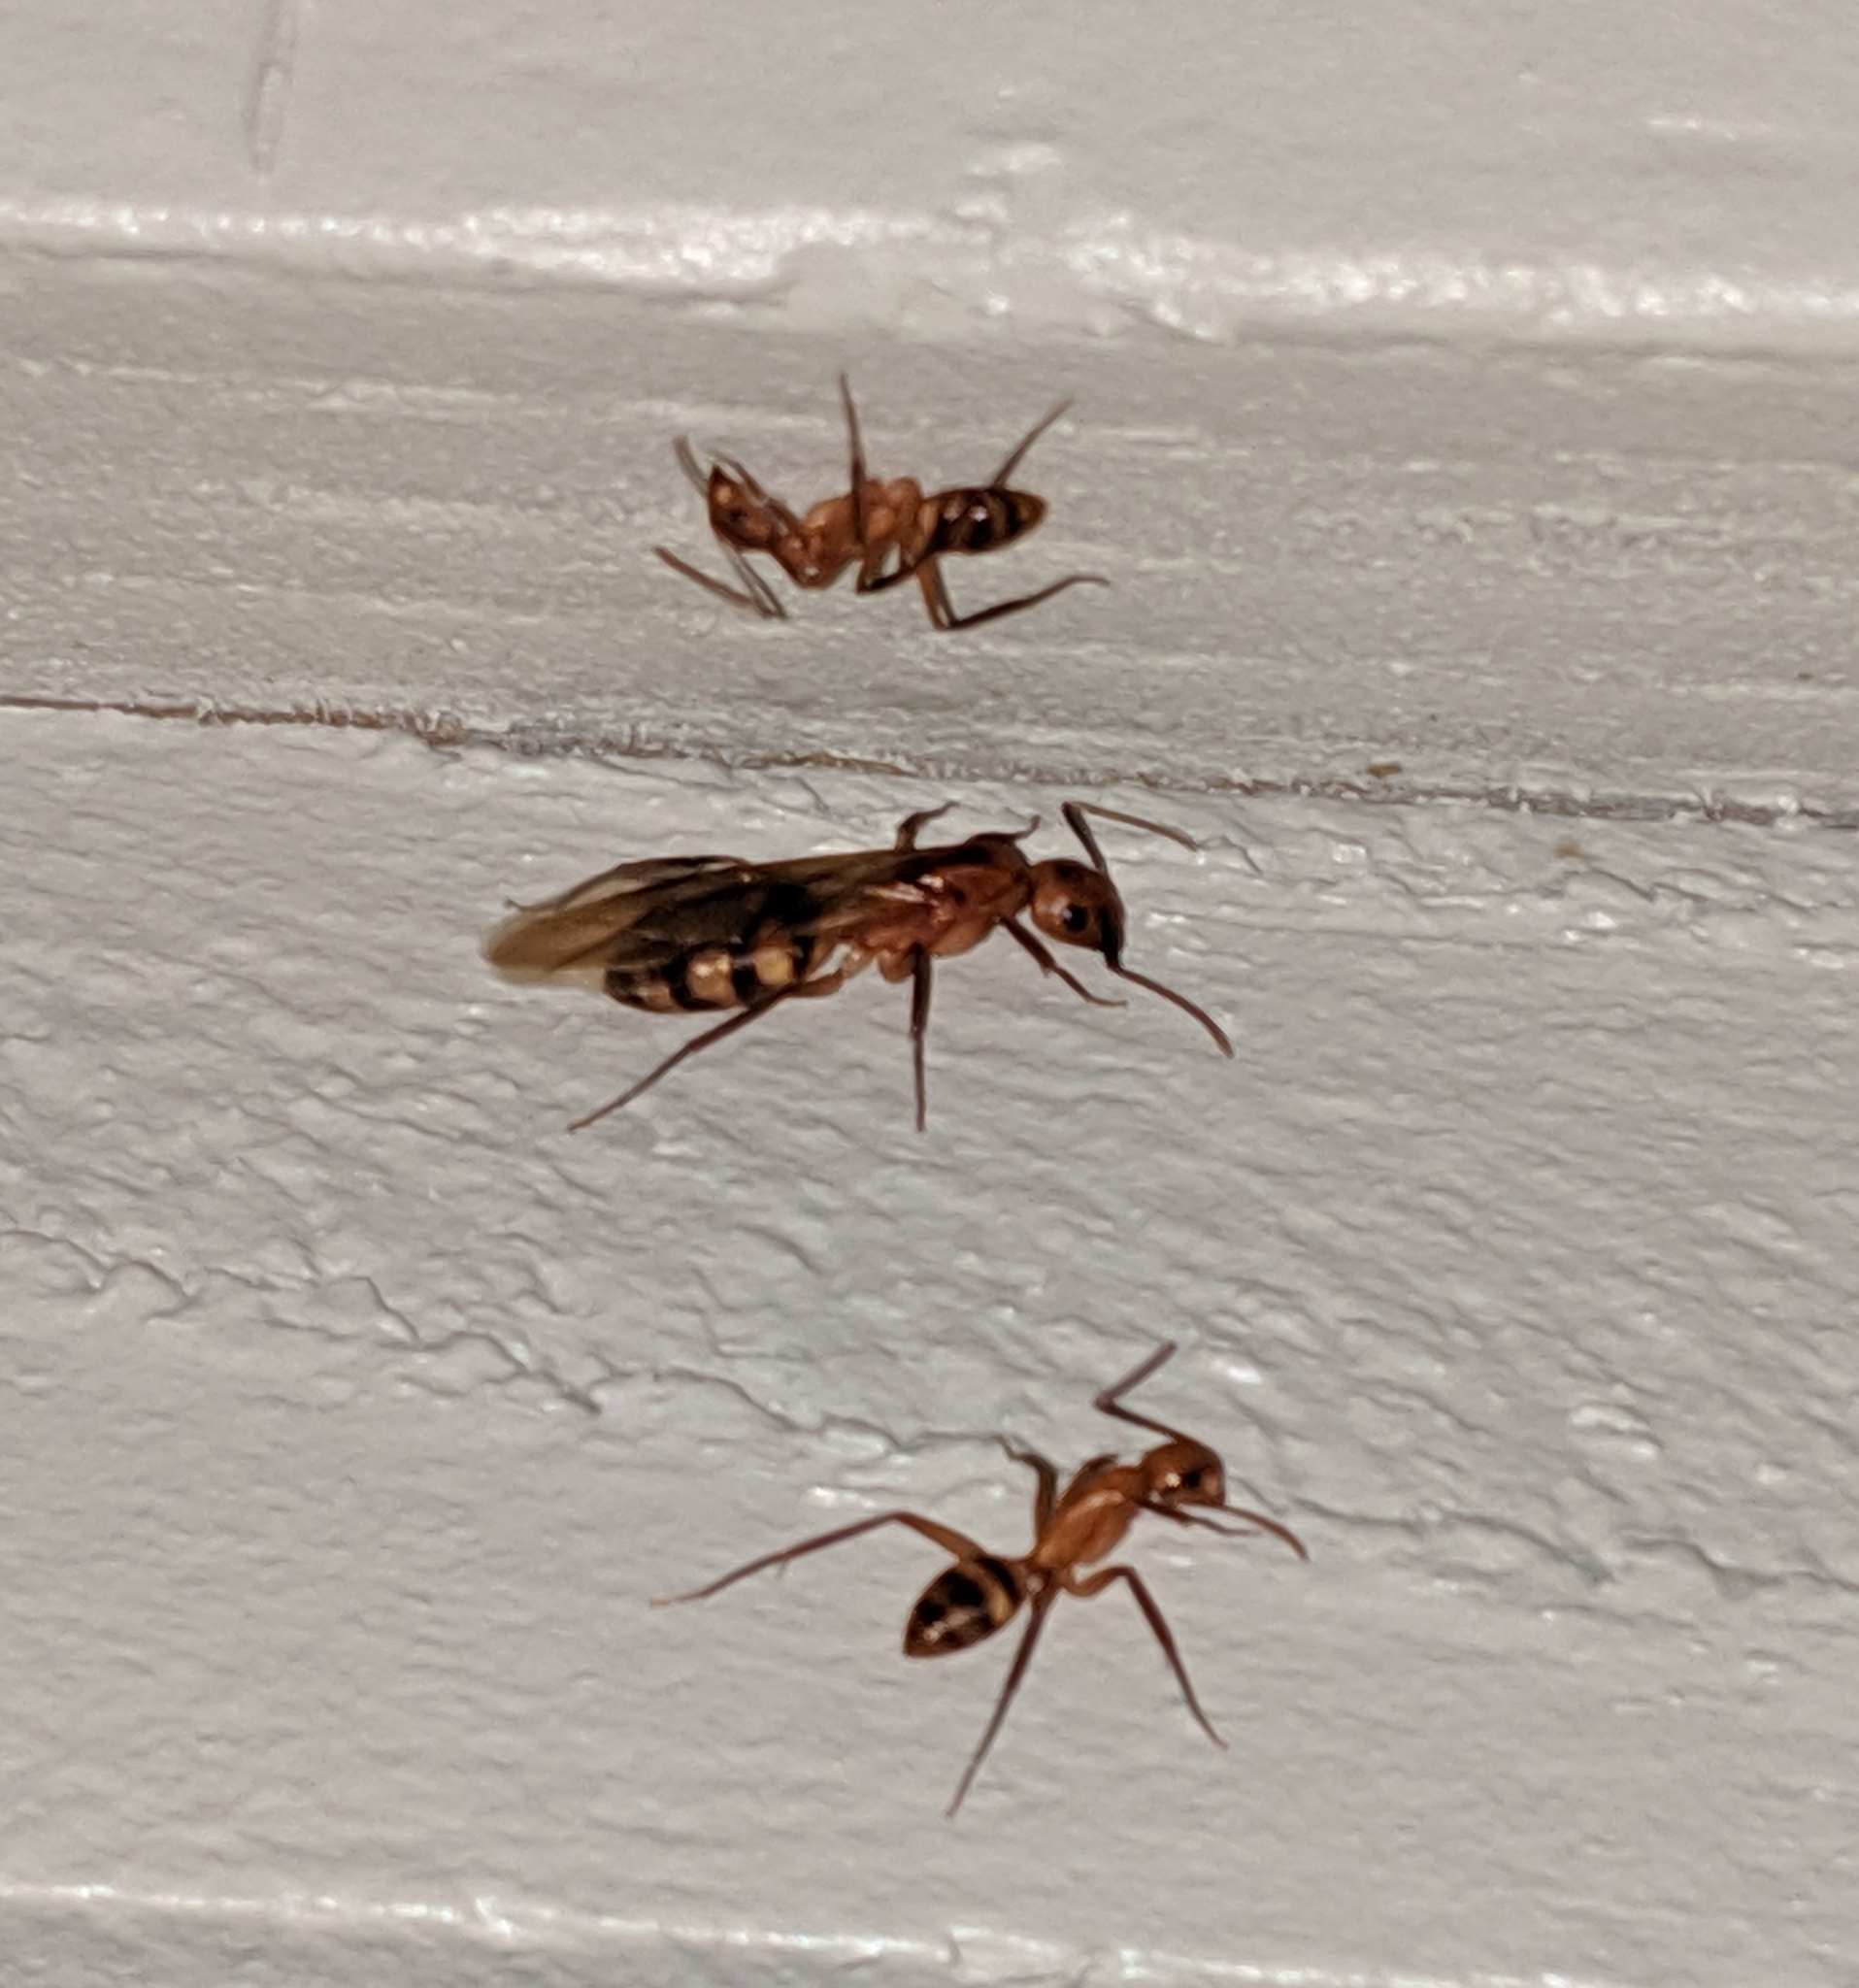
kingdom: Animalia
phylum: Arthropoda
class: Insecta
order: Hymenoptera
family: Formicidae
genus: Camponotus
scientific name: Camponotus variegatus
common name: Hawaiian carpenter ant
